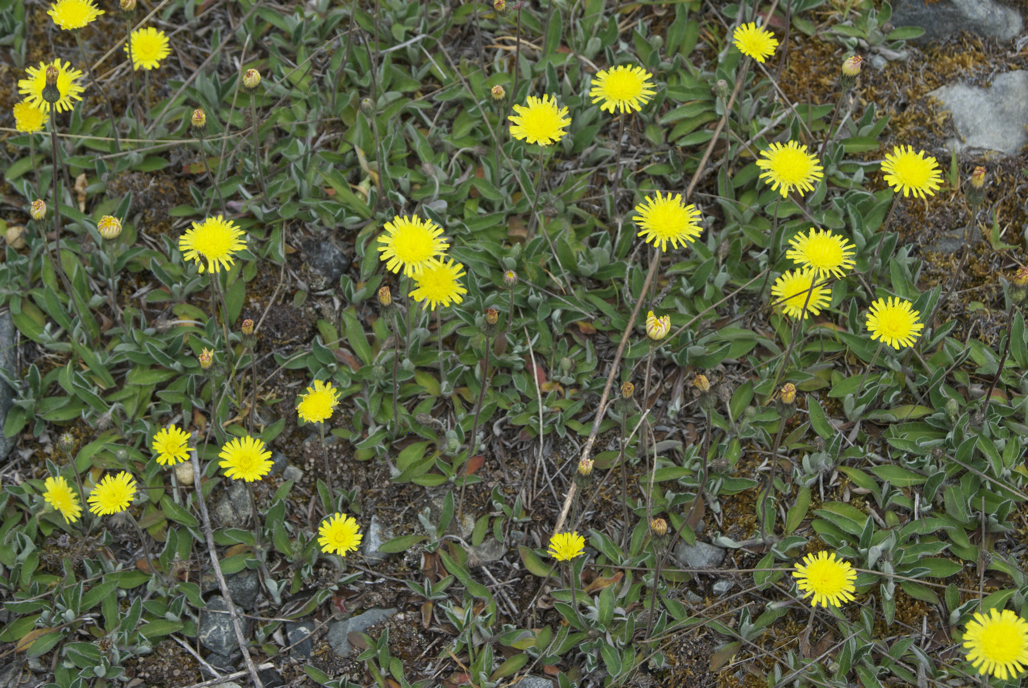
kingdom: Plantae
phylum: Tracheophyta
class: Magnoliopsida
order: Asterales
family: Asteraceae
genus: Pilosella
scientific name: Pilosella officinarum
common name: Mouse-ear hawkweed
